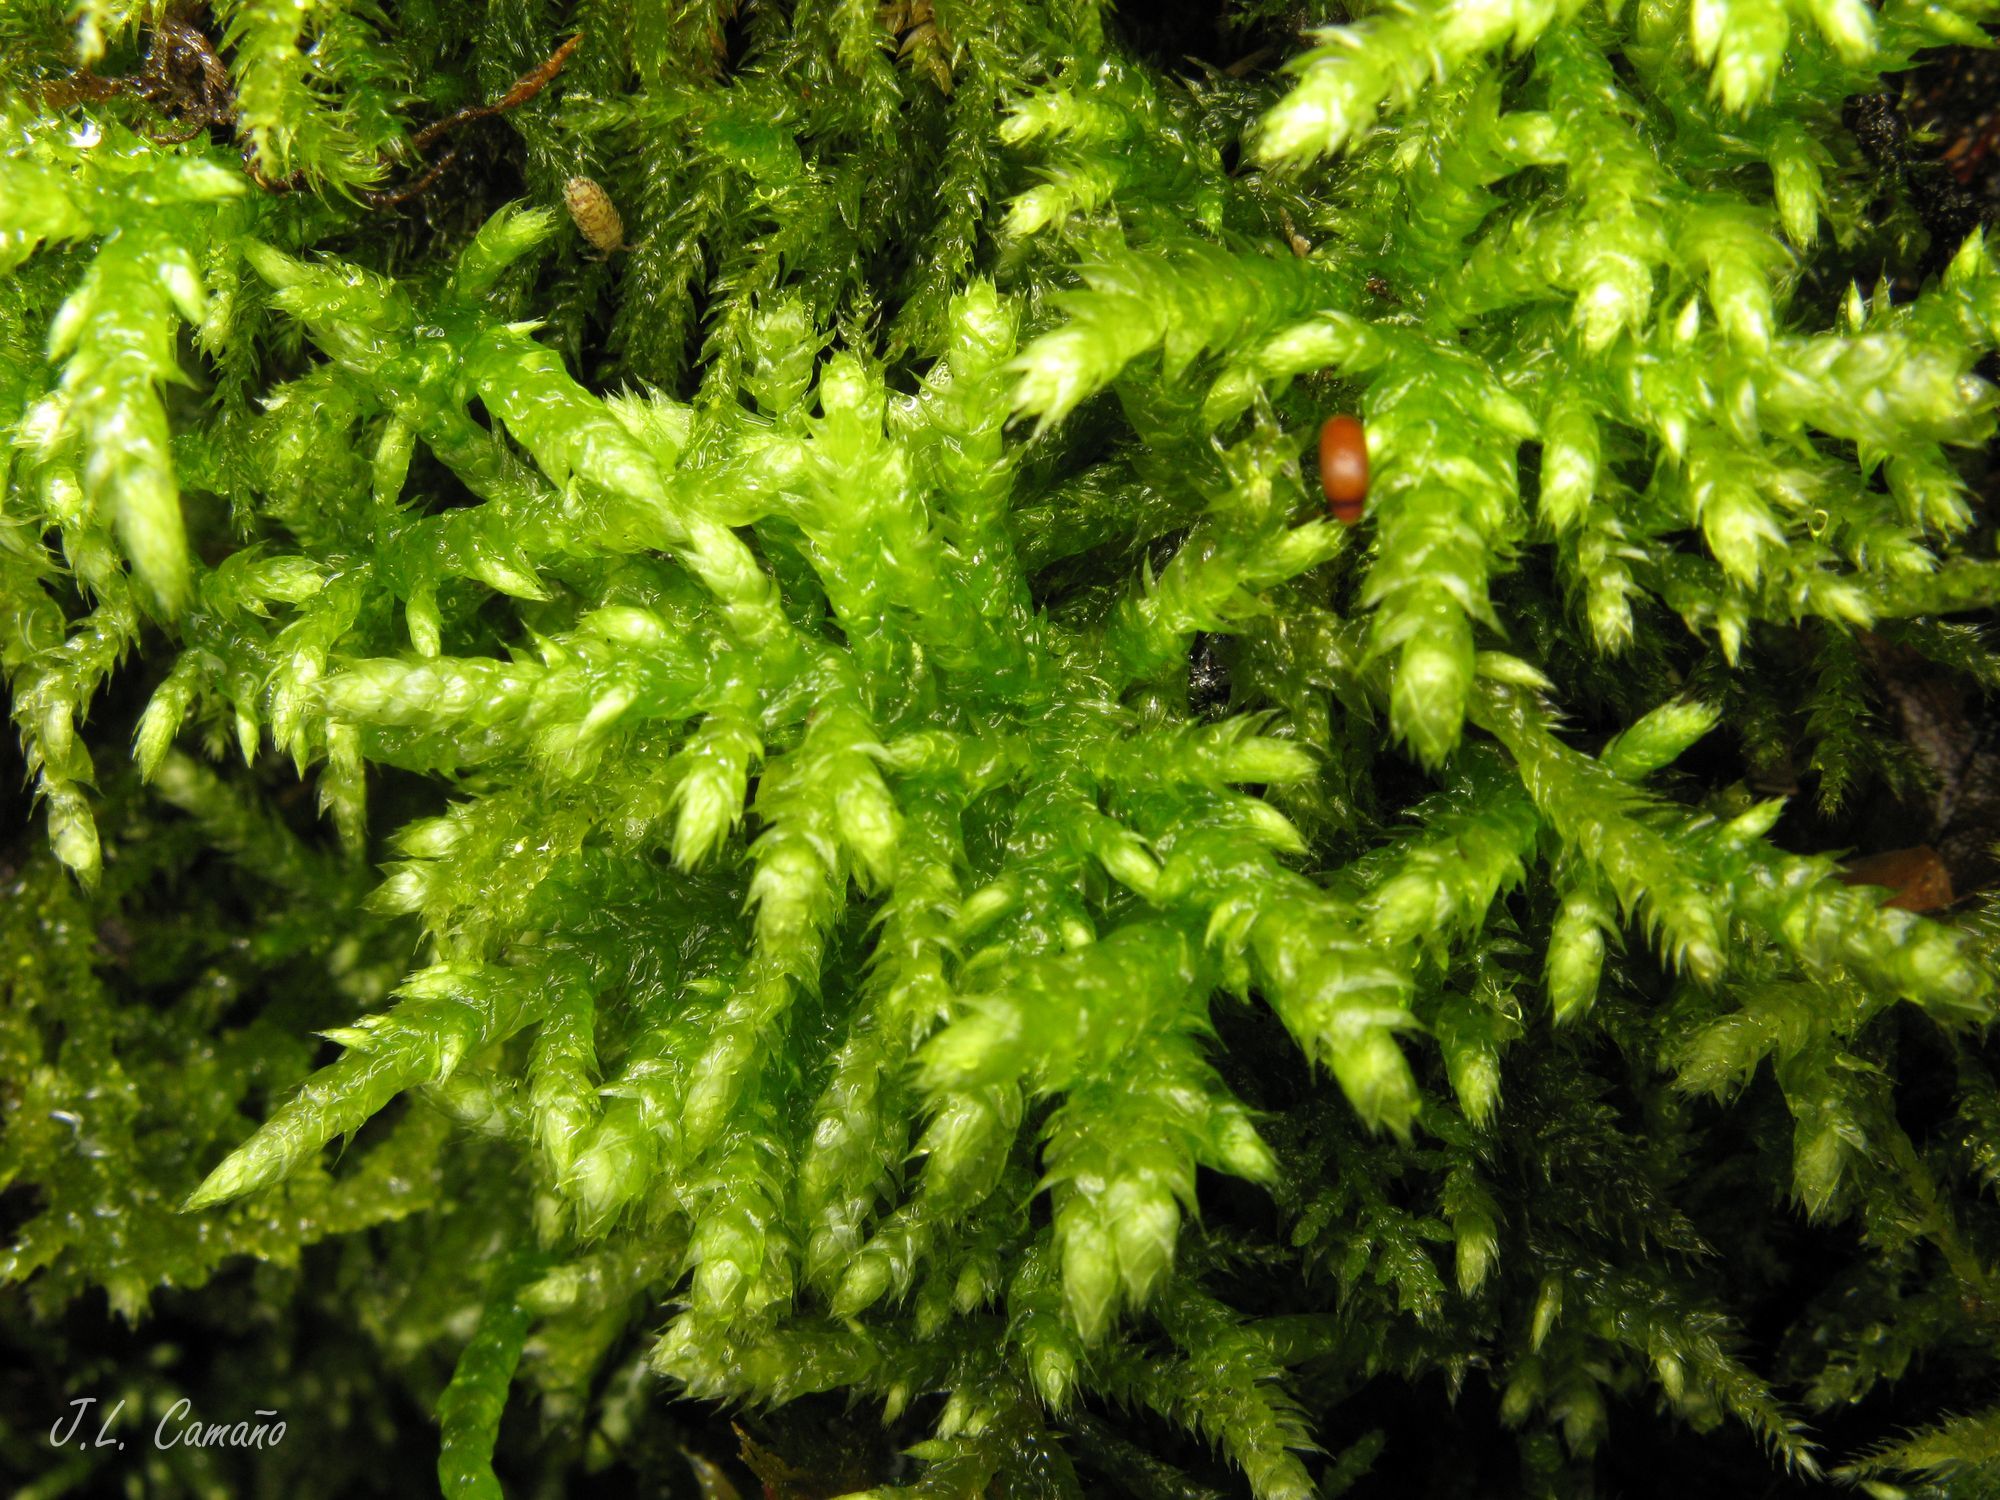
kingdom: Plantae
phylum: Bryophyta
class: Bryopsida
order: Hypnales
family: Brachytheciaceae
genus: Brachythecium
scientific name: Brachythecium rutabulum
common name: Rough-stalked feather-moss
